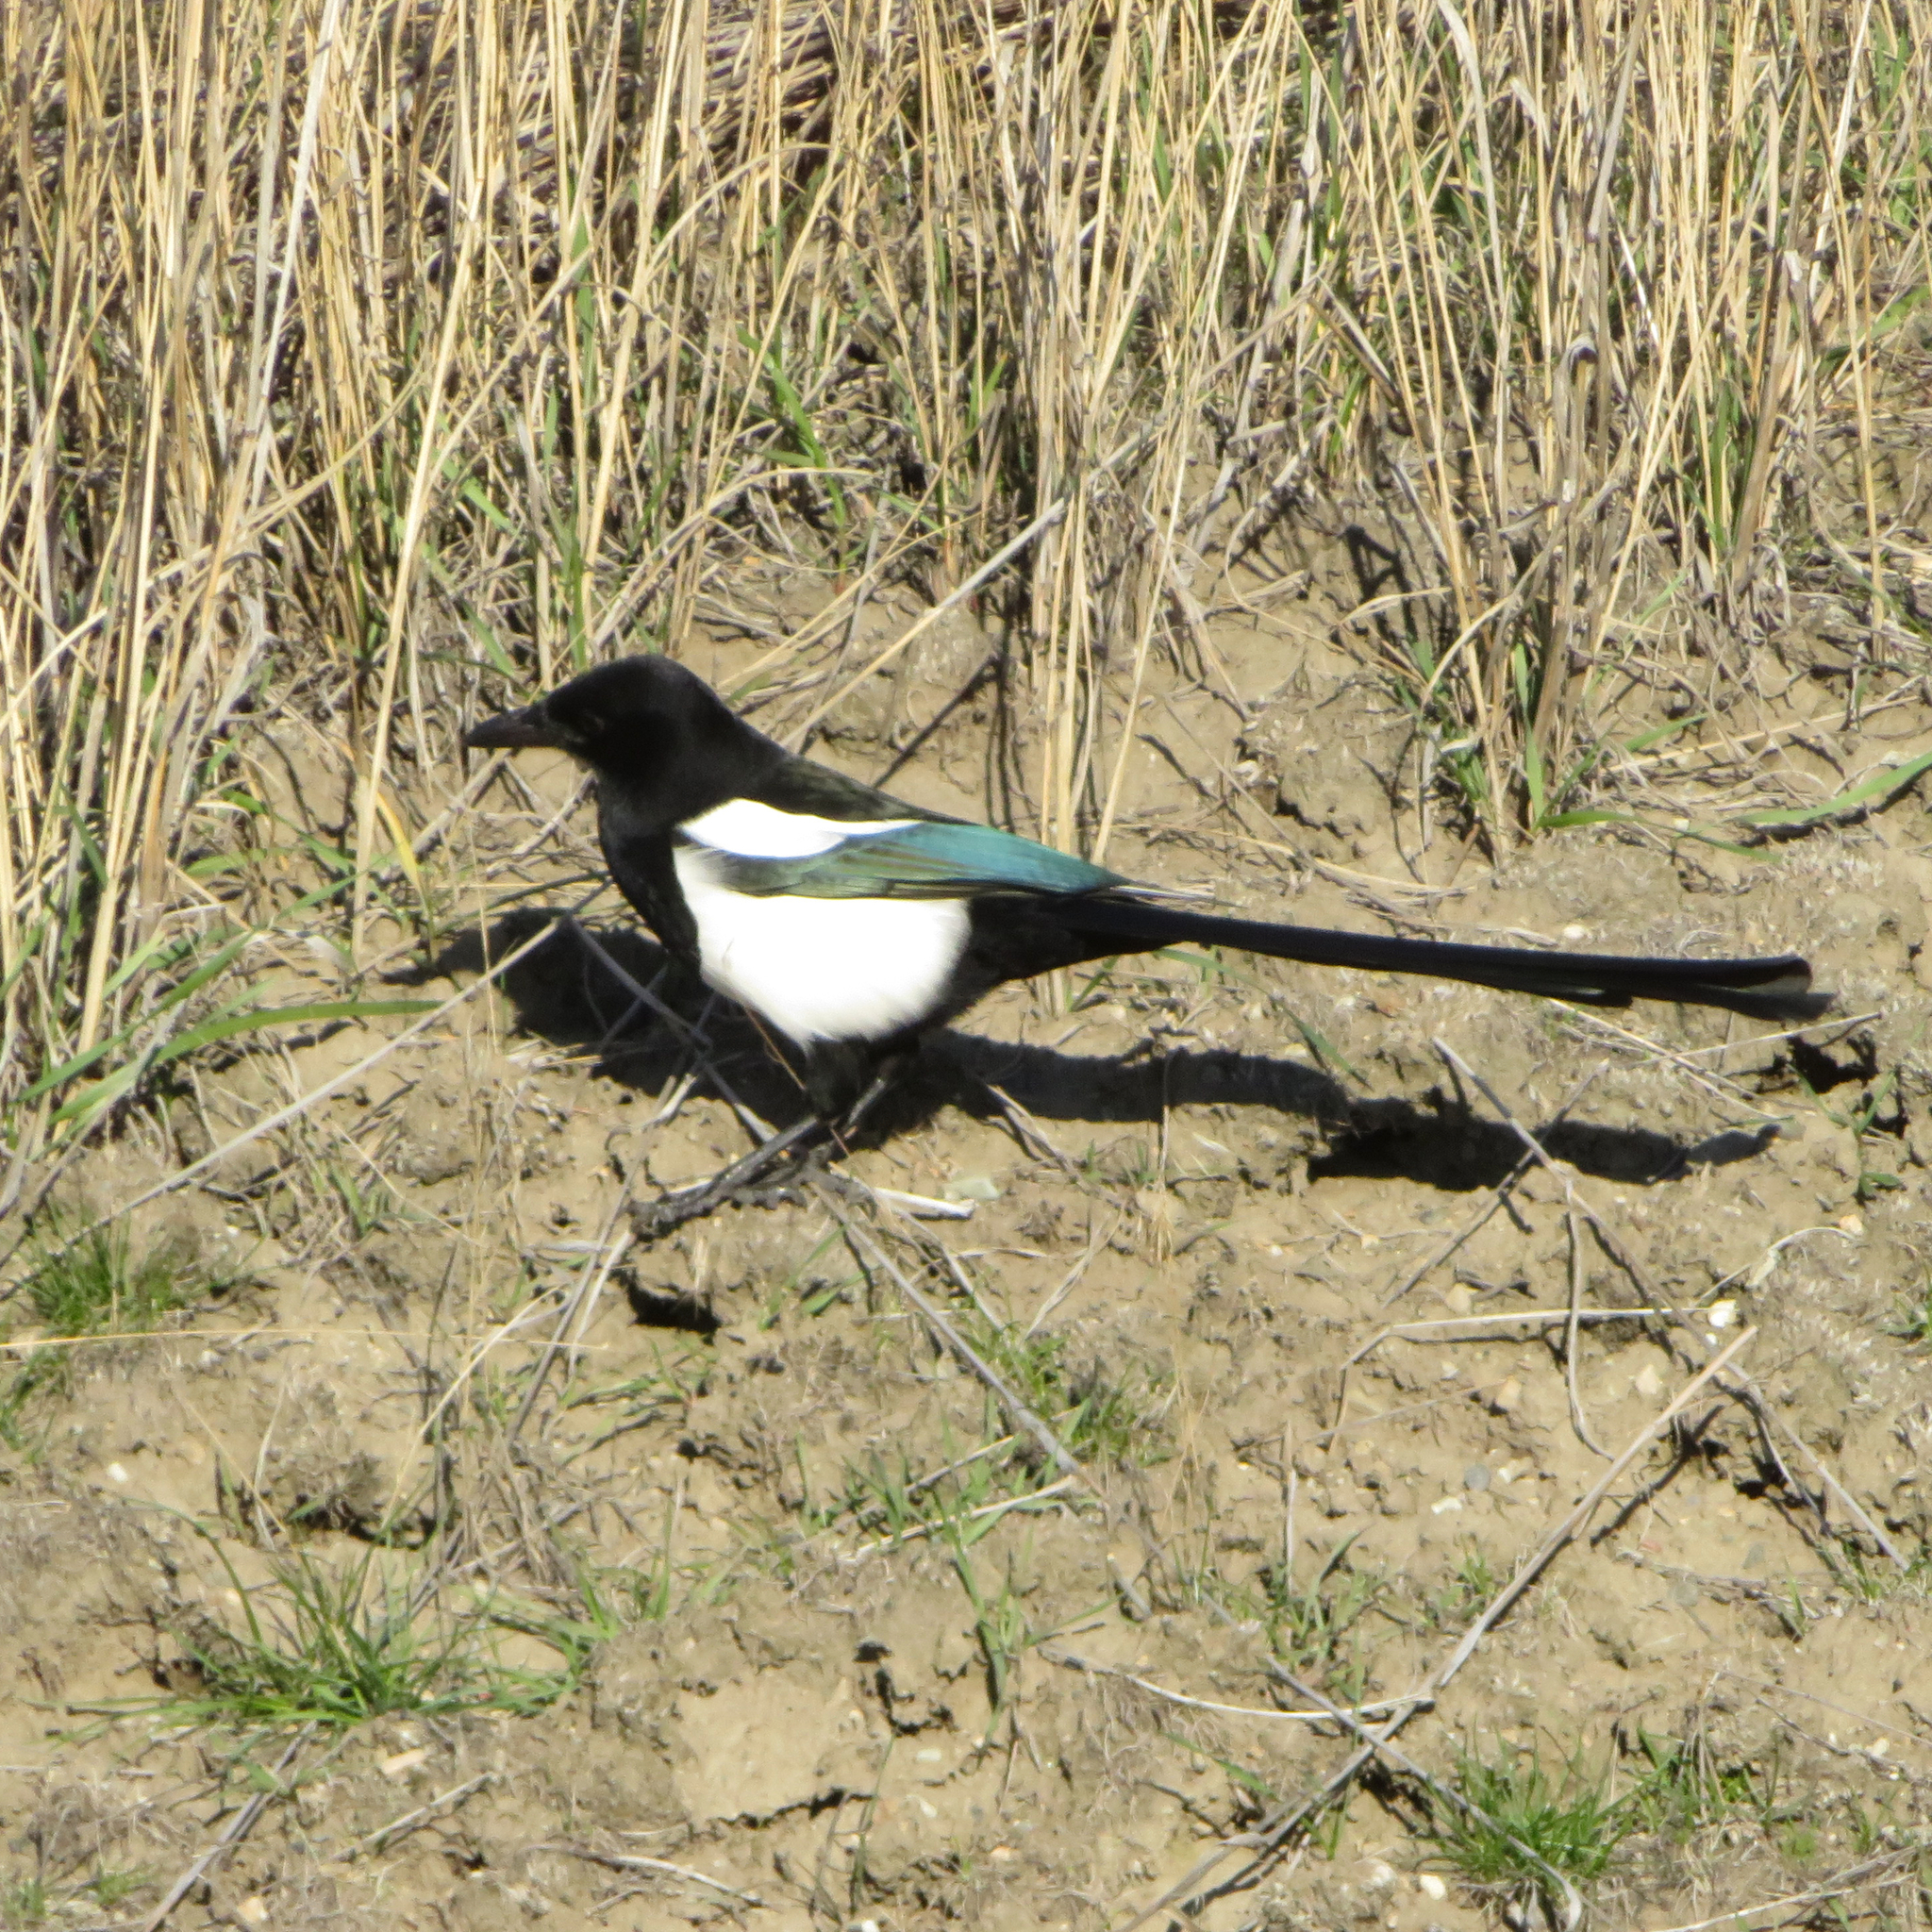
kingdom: Animalia
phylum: Chordata
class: Aves
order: Passeriformes
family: Corvidae
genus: Pica
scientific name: Pica hudsonia
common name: Black-billed magpie
